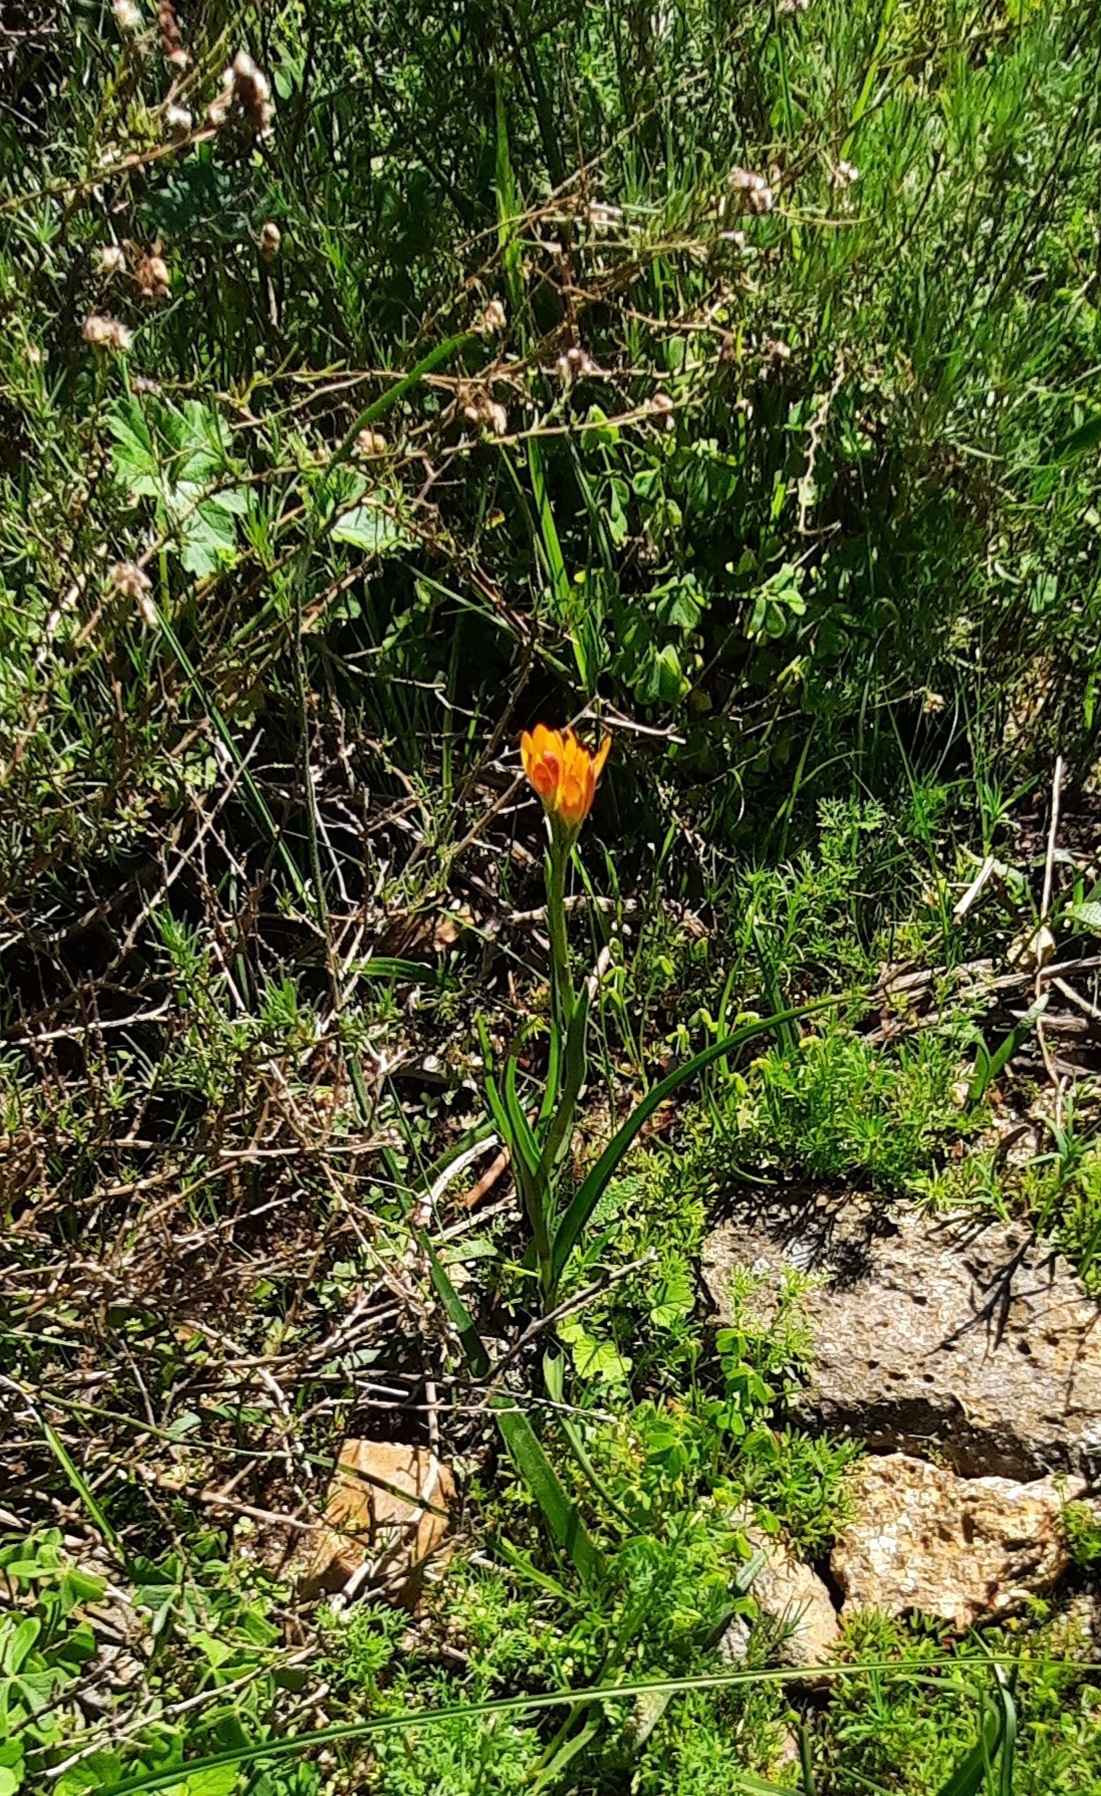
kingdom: Plantae
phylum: Tracheophyta
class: Liliopsida
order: Liliales
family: Colchicaceae
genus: Baeometra
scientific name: Baeometra uniflora
